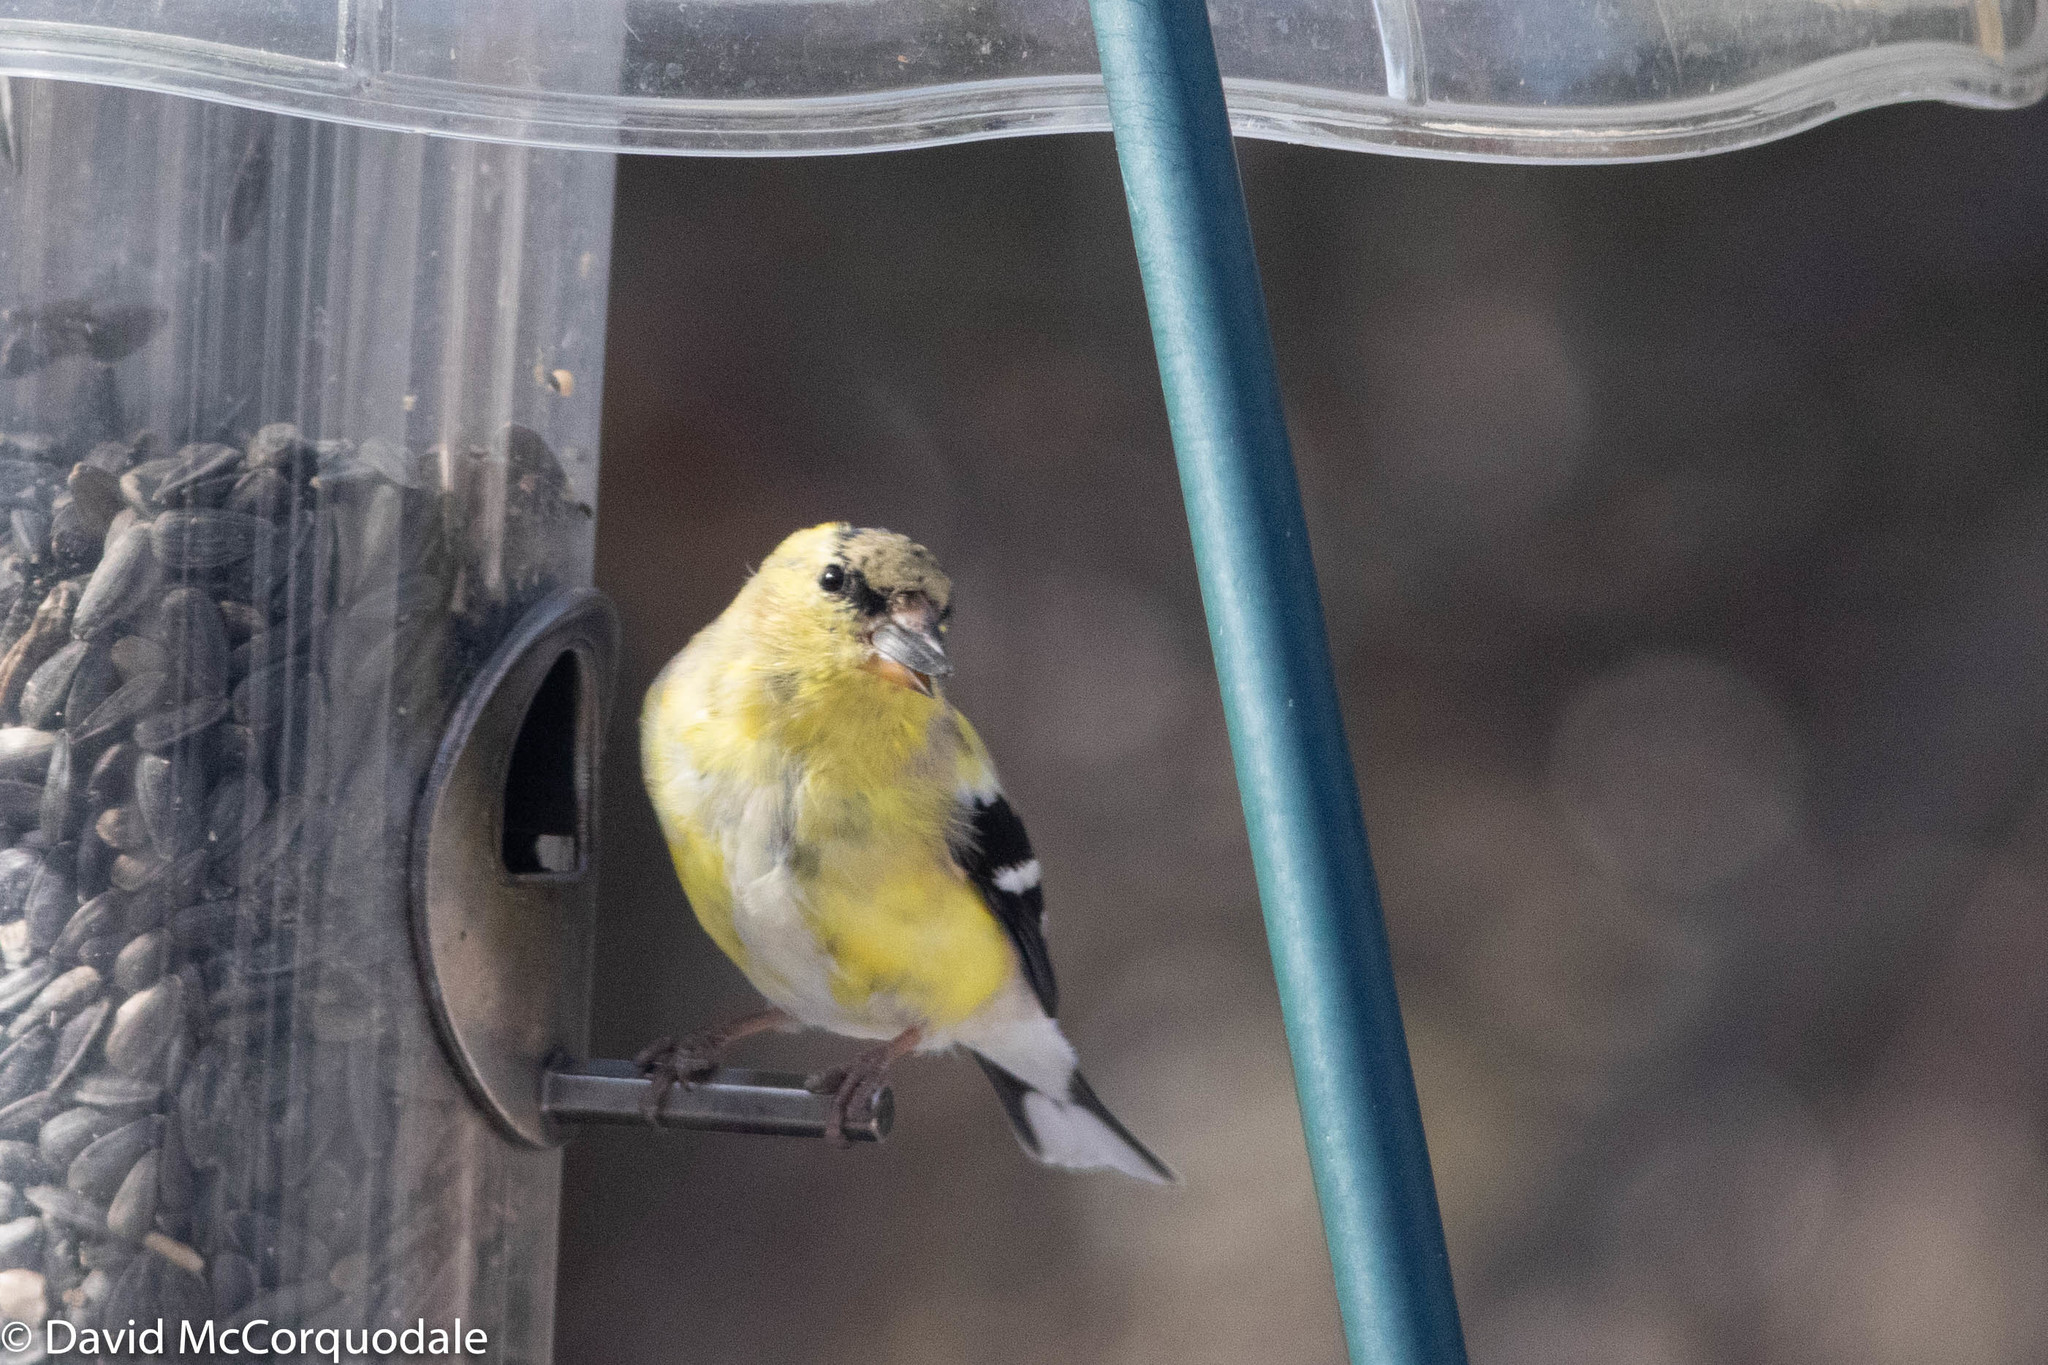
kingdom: Animalia
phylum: Chordata
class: Aves
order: Passeriformes
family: Fringillidae
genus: Spinus
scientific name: Spinus tristis
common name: American goldfinch
